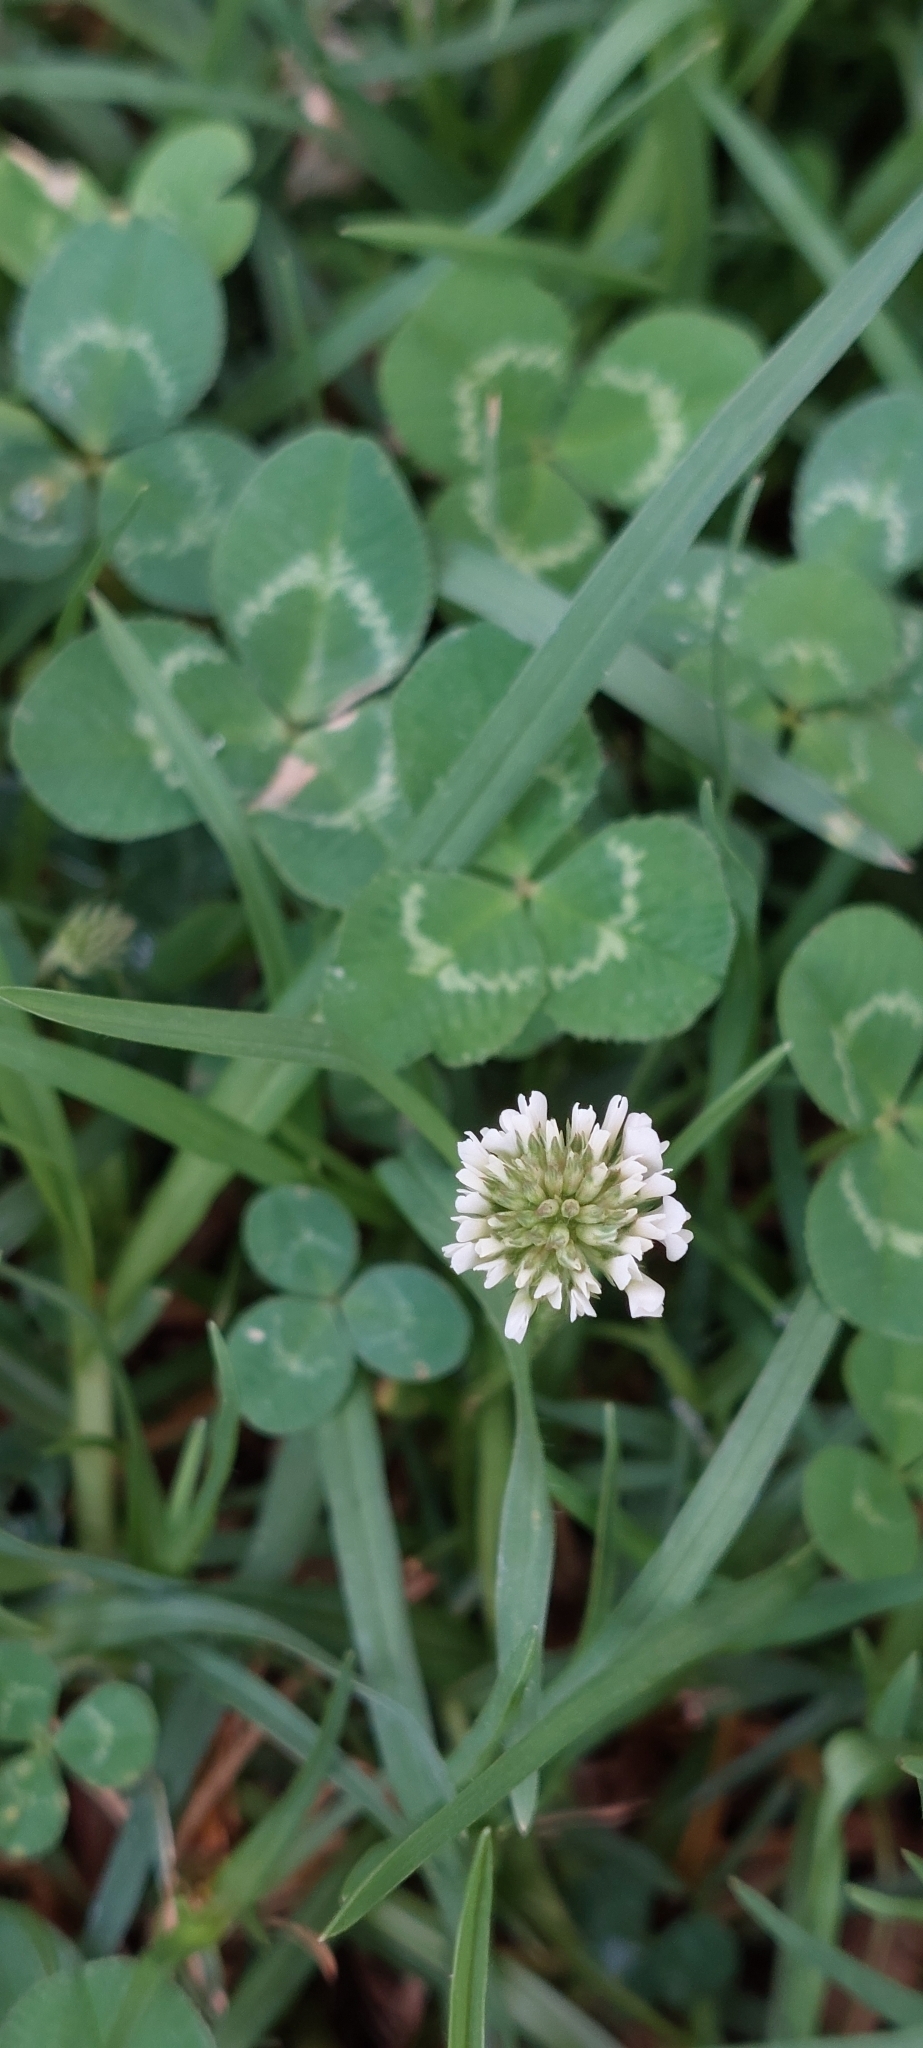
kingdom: Plantae
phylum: Tracheophyta
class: Magnoliopsida
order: Fabales
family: Fabaceae
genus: Trifolium
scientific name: Trifolium repens
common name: White clover
